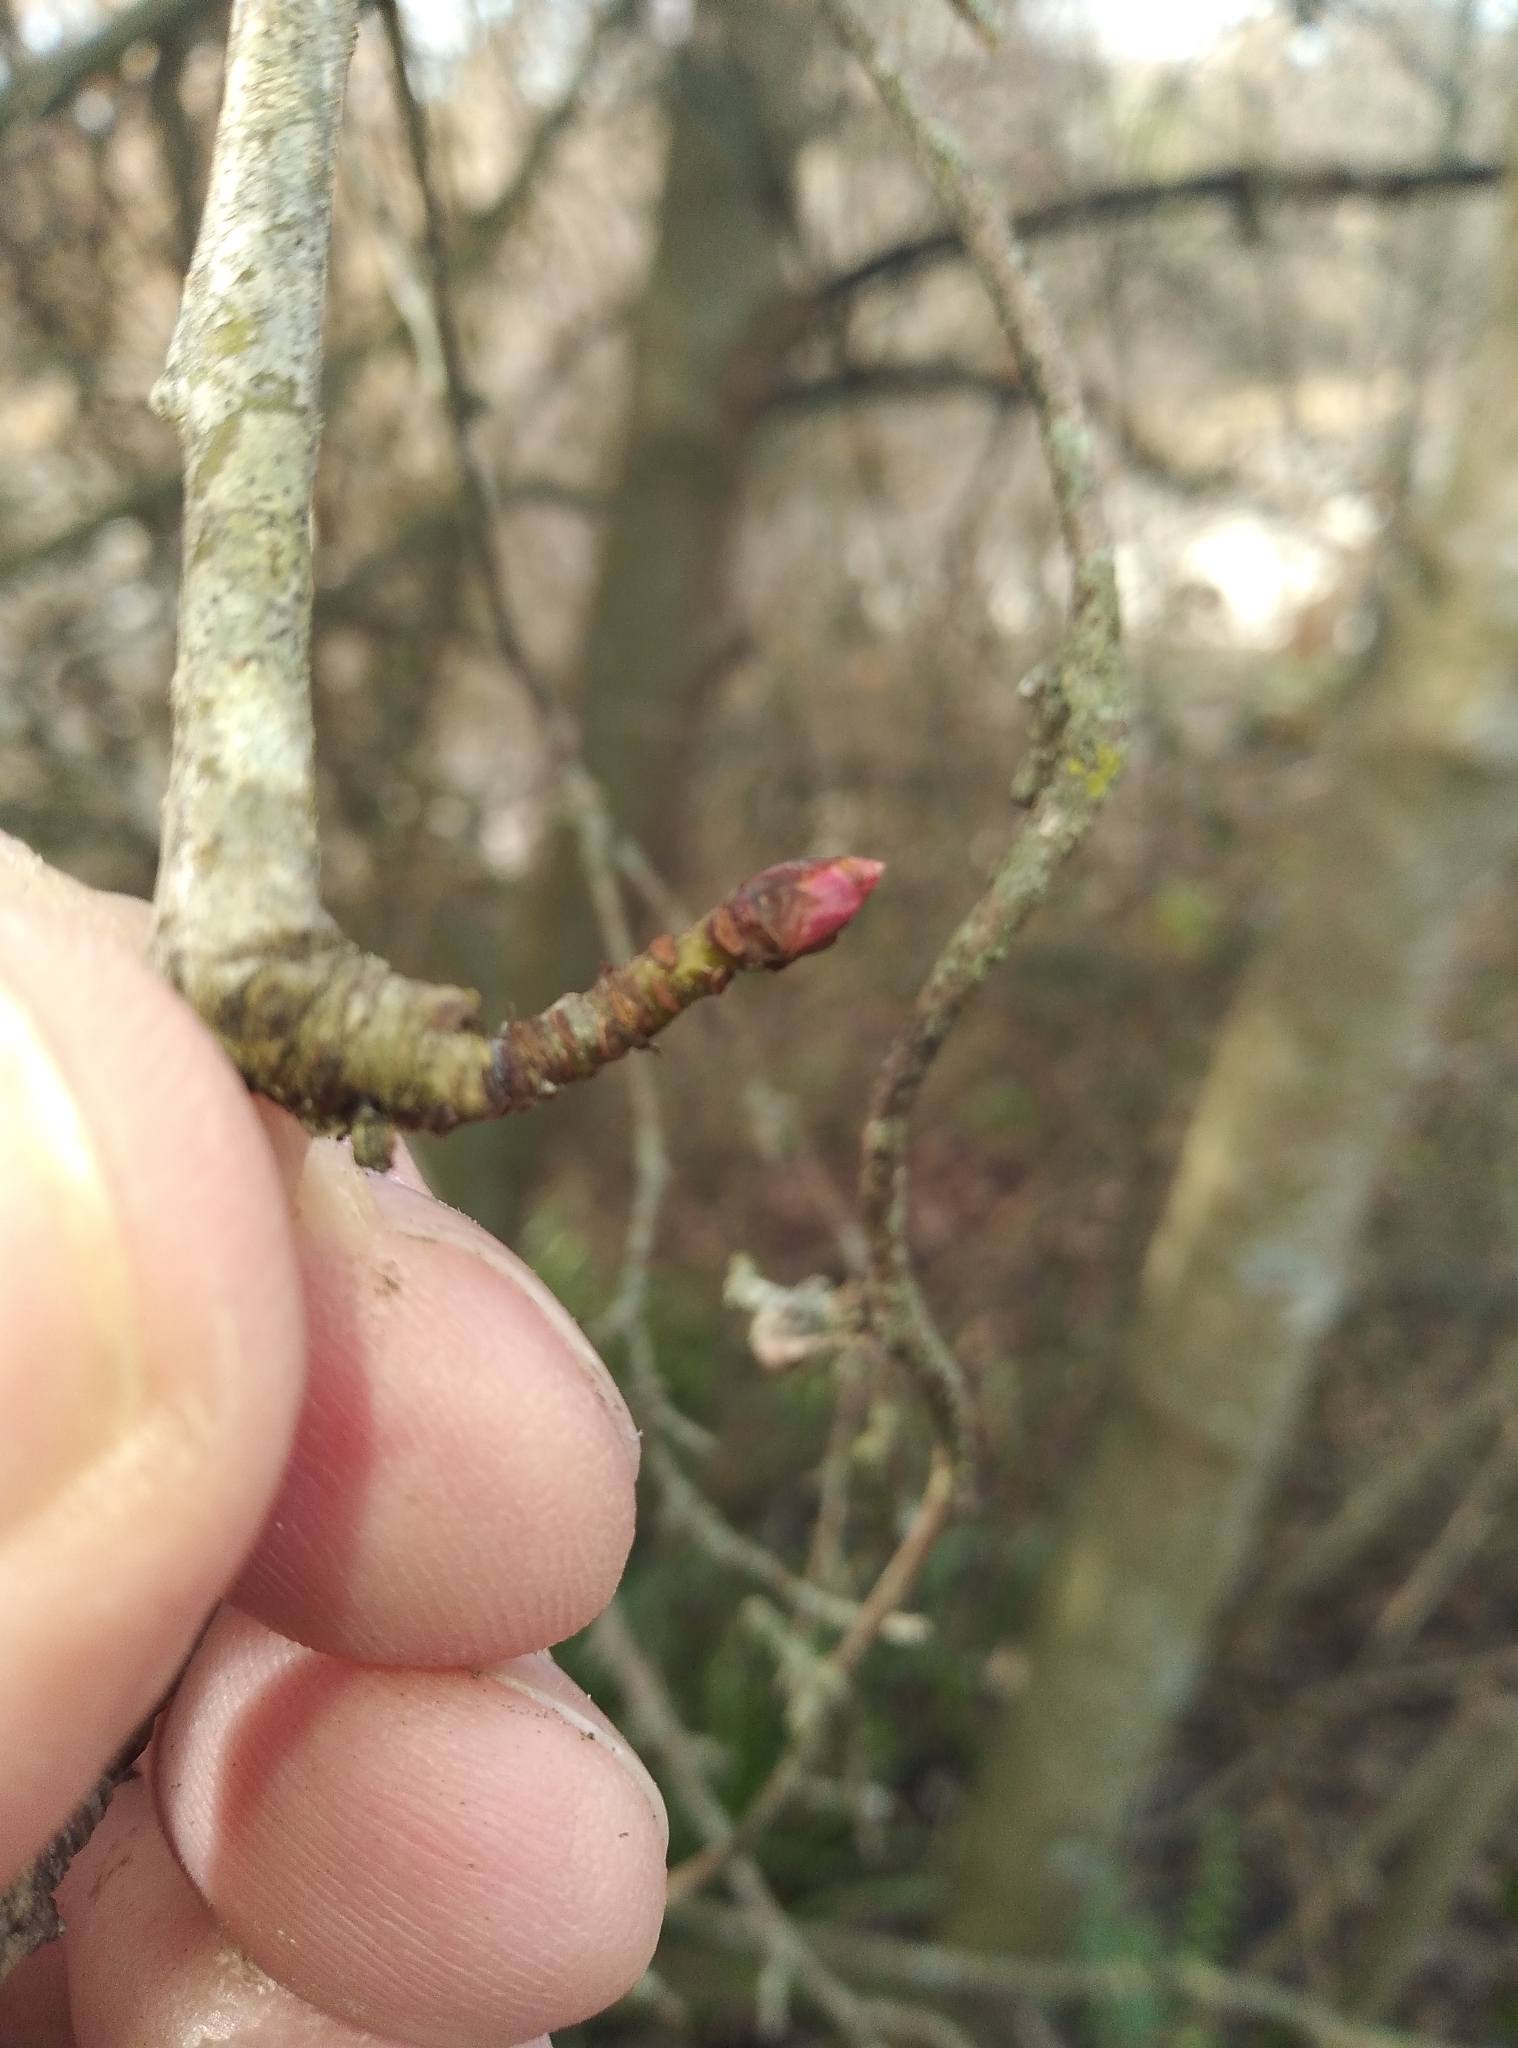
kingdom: Plantae
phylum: Tracheophyta
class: Magnoliopsida
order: Rosales
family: Rosaceae
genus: Prunus
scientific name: Prunus serrulata
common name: Japanese cherry
